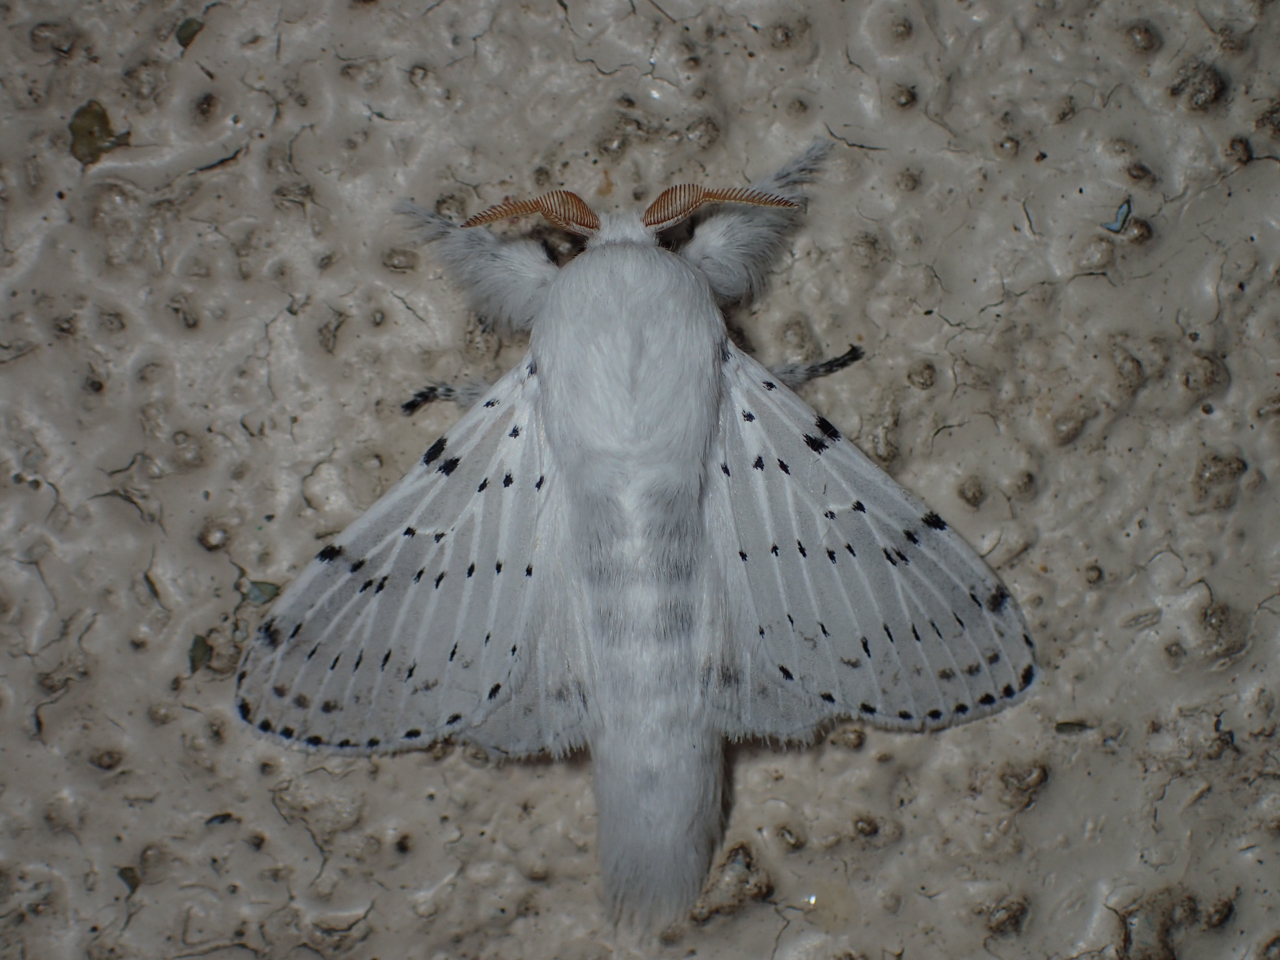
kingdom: Animalia
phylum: Arthropoda
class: Insecta
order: Lepidoptera
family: Lasiocampidae
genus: Artace
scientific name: Artace cribrarius
